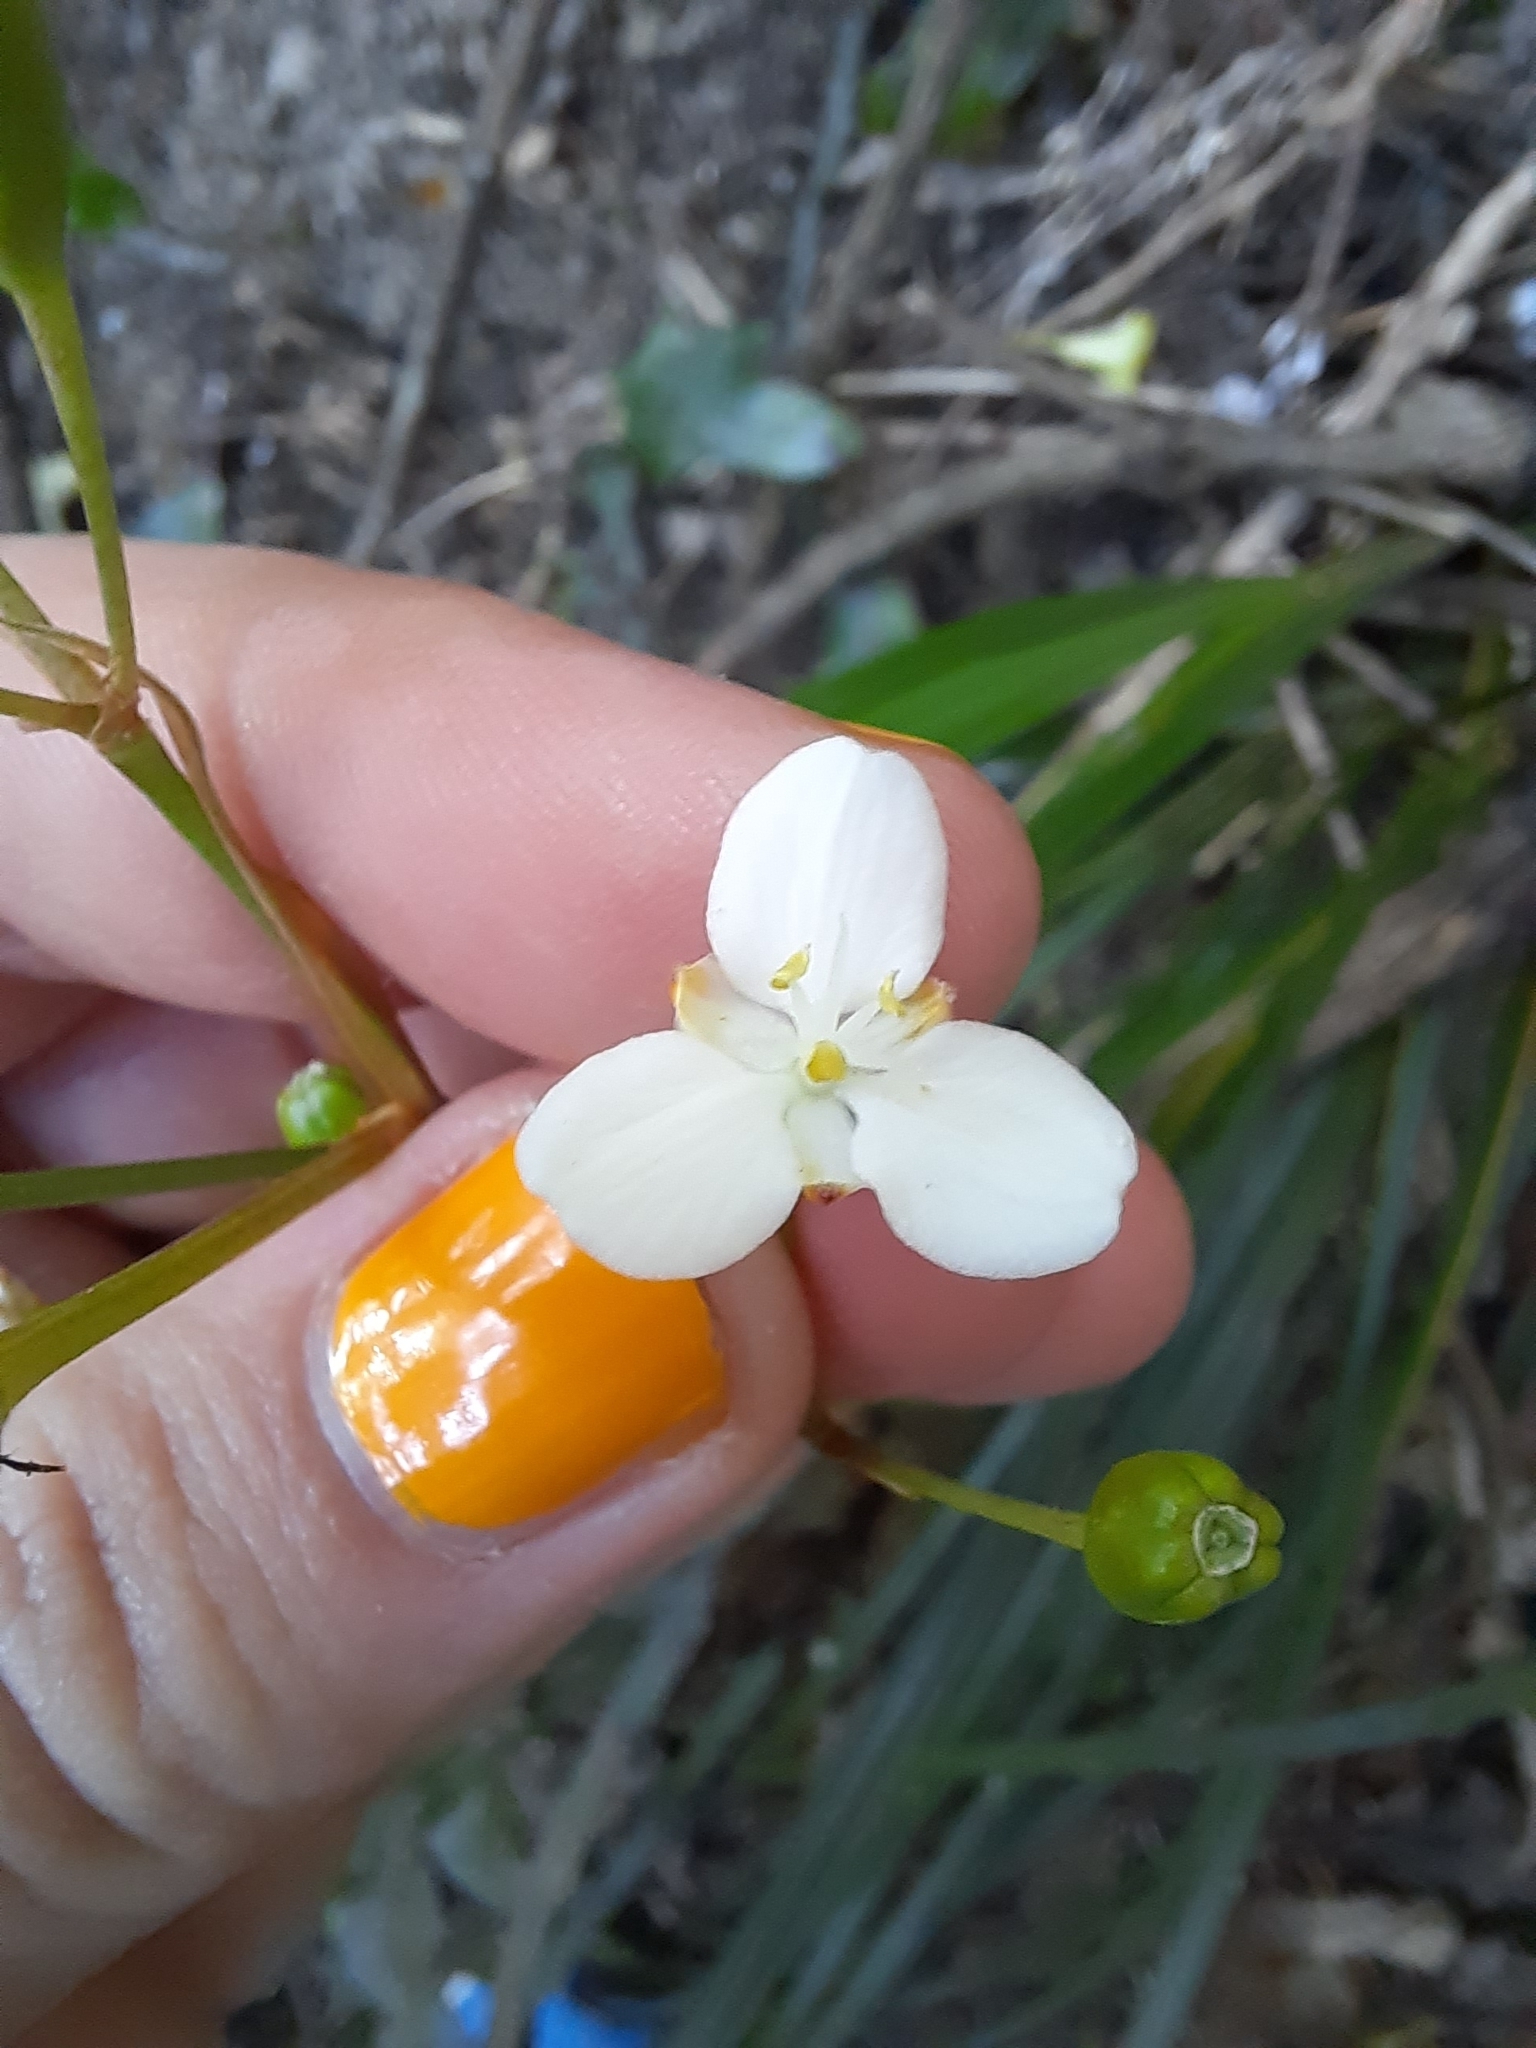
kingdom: Plantae
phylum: Tracheophyta
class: Liliopsida
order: Asparagales
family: Iridaceae
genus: Libertia
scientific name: Libertia ixioides
